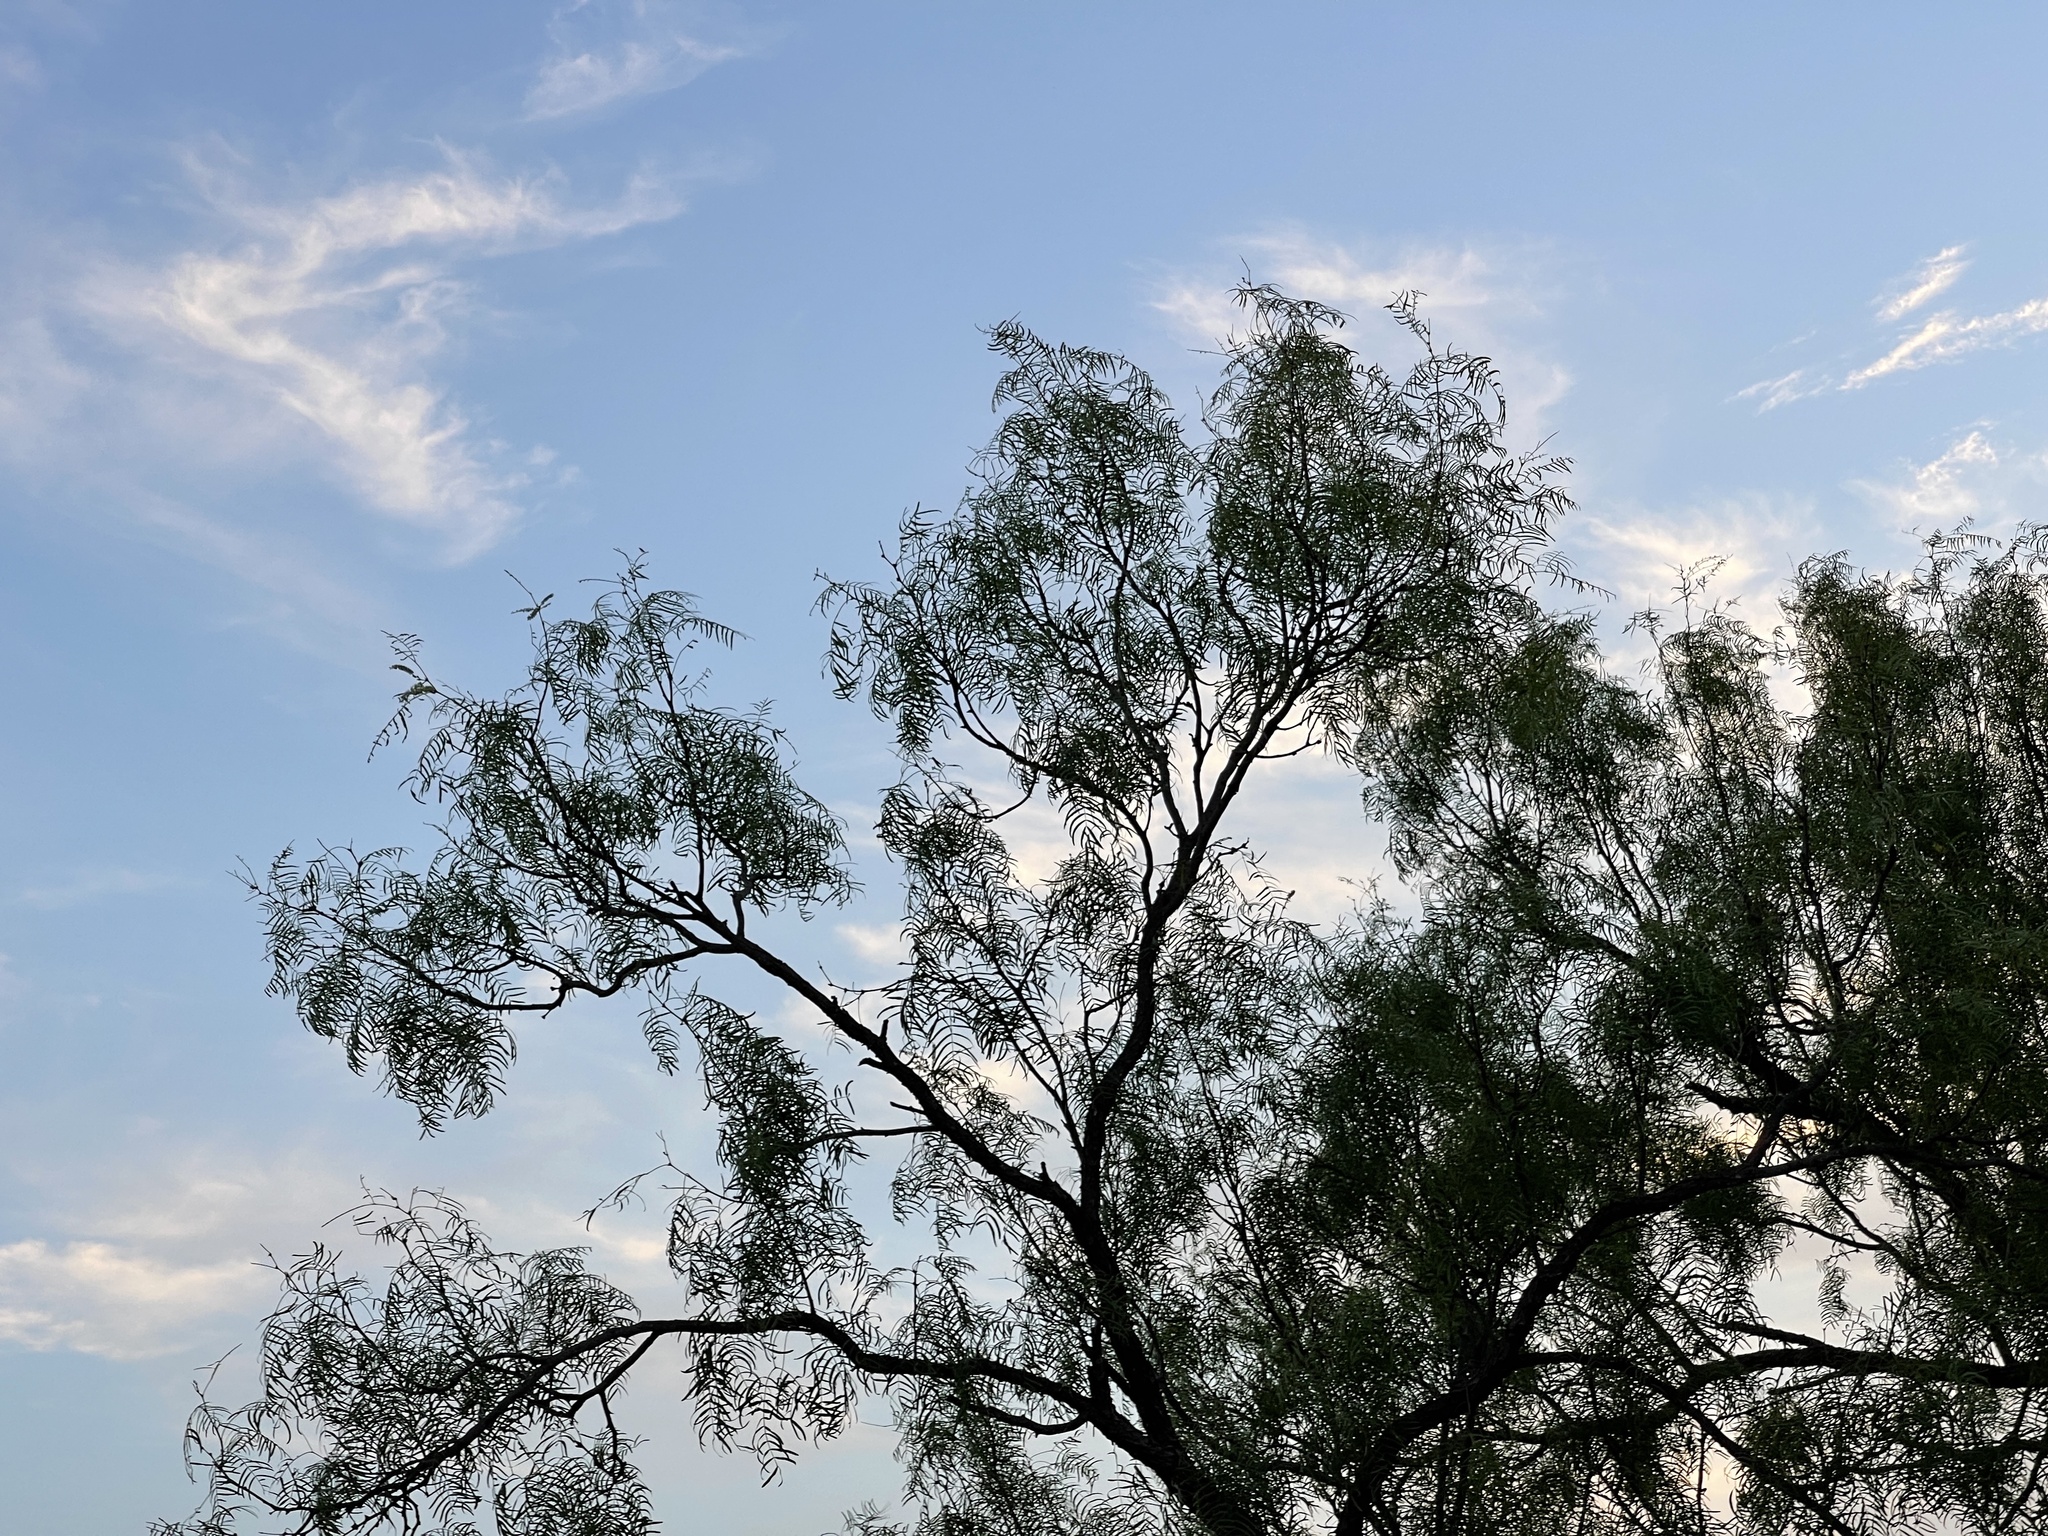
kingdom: Plantae
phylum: Tracheophyta
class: Magnoliopsida
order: Fabales
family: Fabaceae
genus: Prosopis
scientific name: Prosopis glandulosa
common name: Honey mesquite
